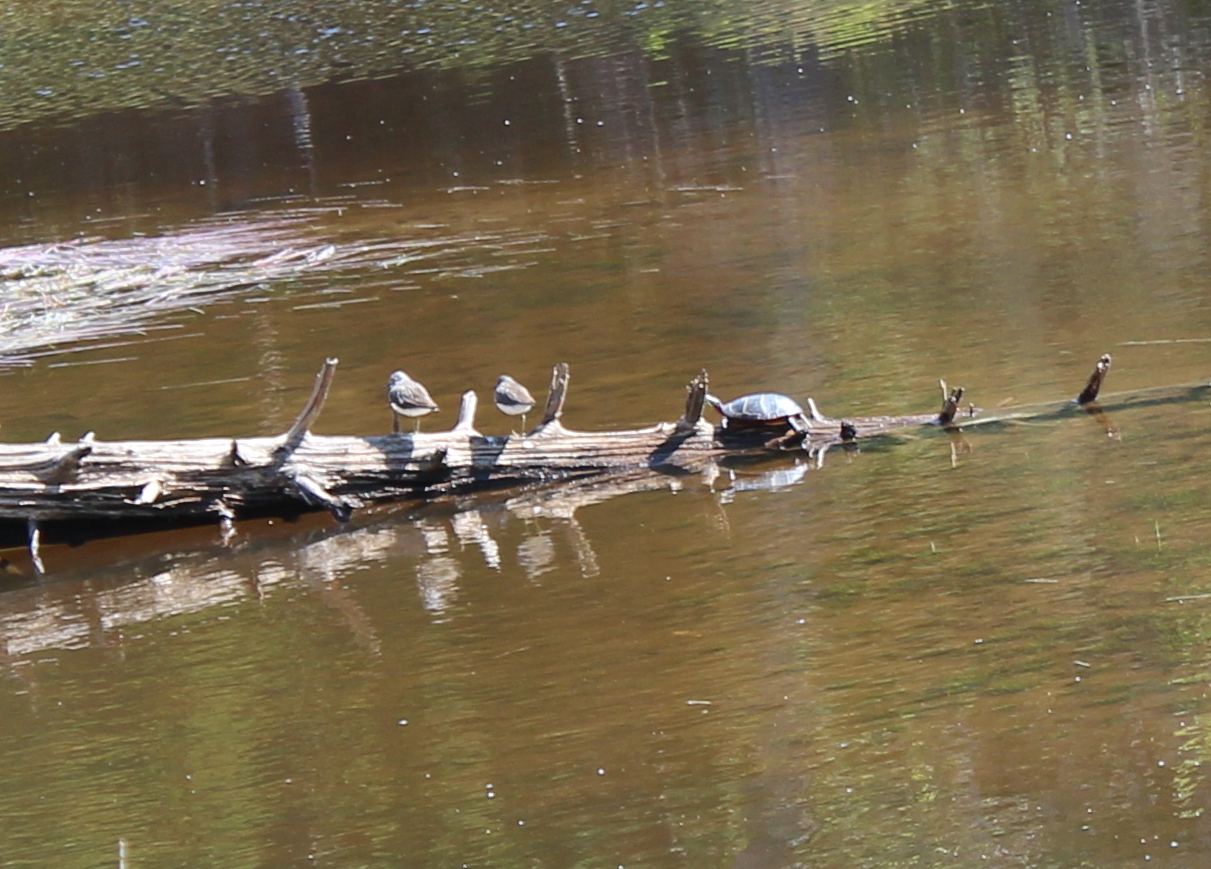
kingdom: Animalia
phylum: Chordata
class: Testudines
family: Emydidae
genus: Chrysemys
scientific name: Chrysemys picta
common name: Painted turtle
